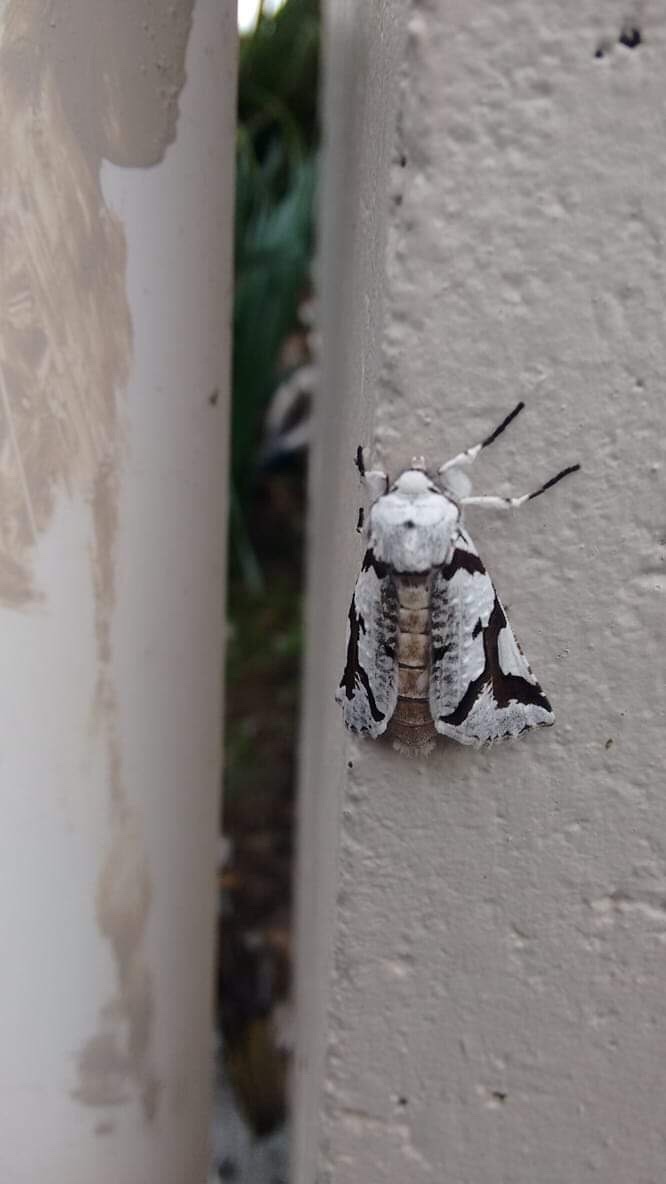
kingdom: Animalia
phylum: Arthropoda
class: Insecta
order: Lepidoptera
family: Geometridae
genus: Declana
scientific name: Declana
